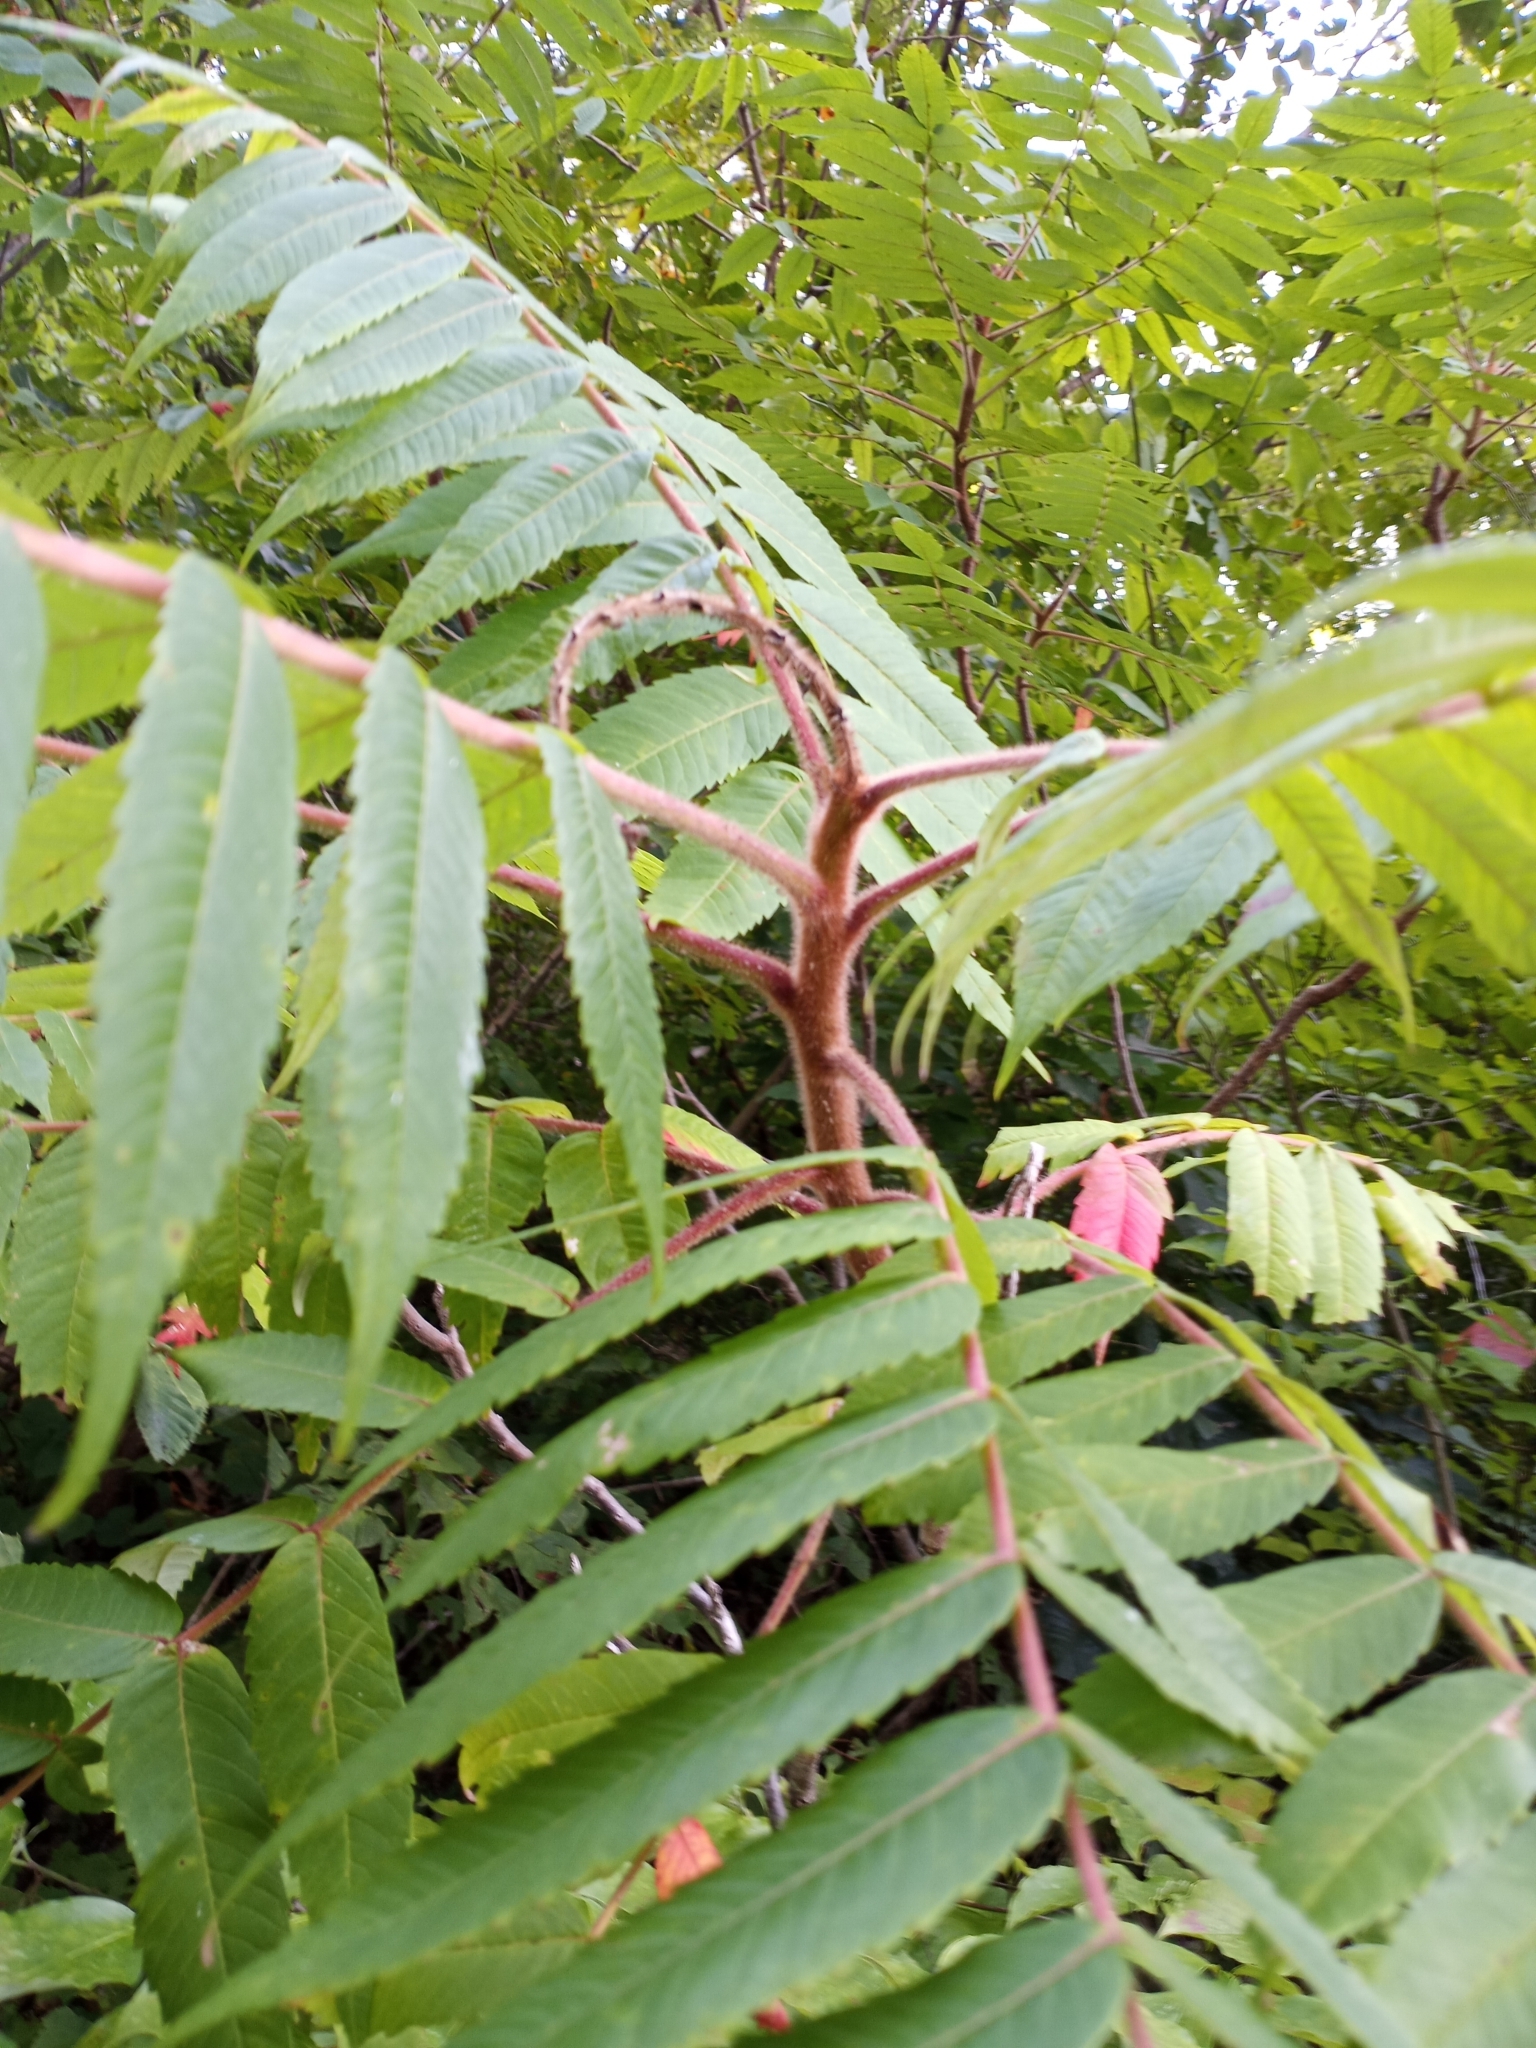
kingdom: Plantae
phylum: Tracheophyta
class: Magnoliopsida
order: Sapindales
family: Anacardiaceae
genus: Rhus
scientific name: Rhus typhina
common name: Staghorn sumac
